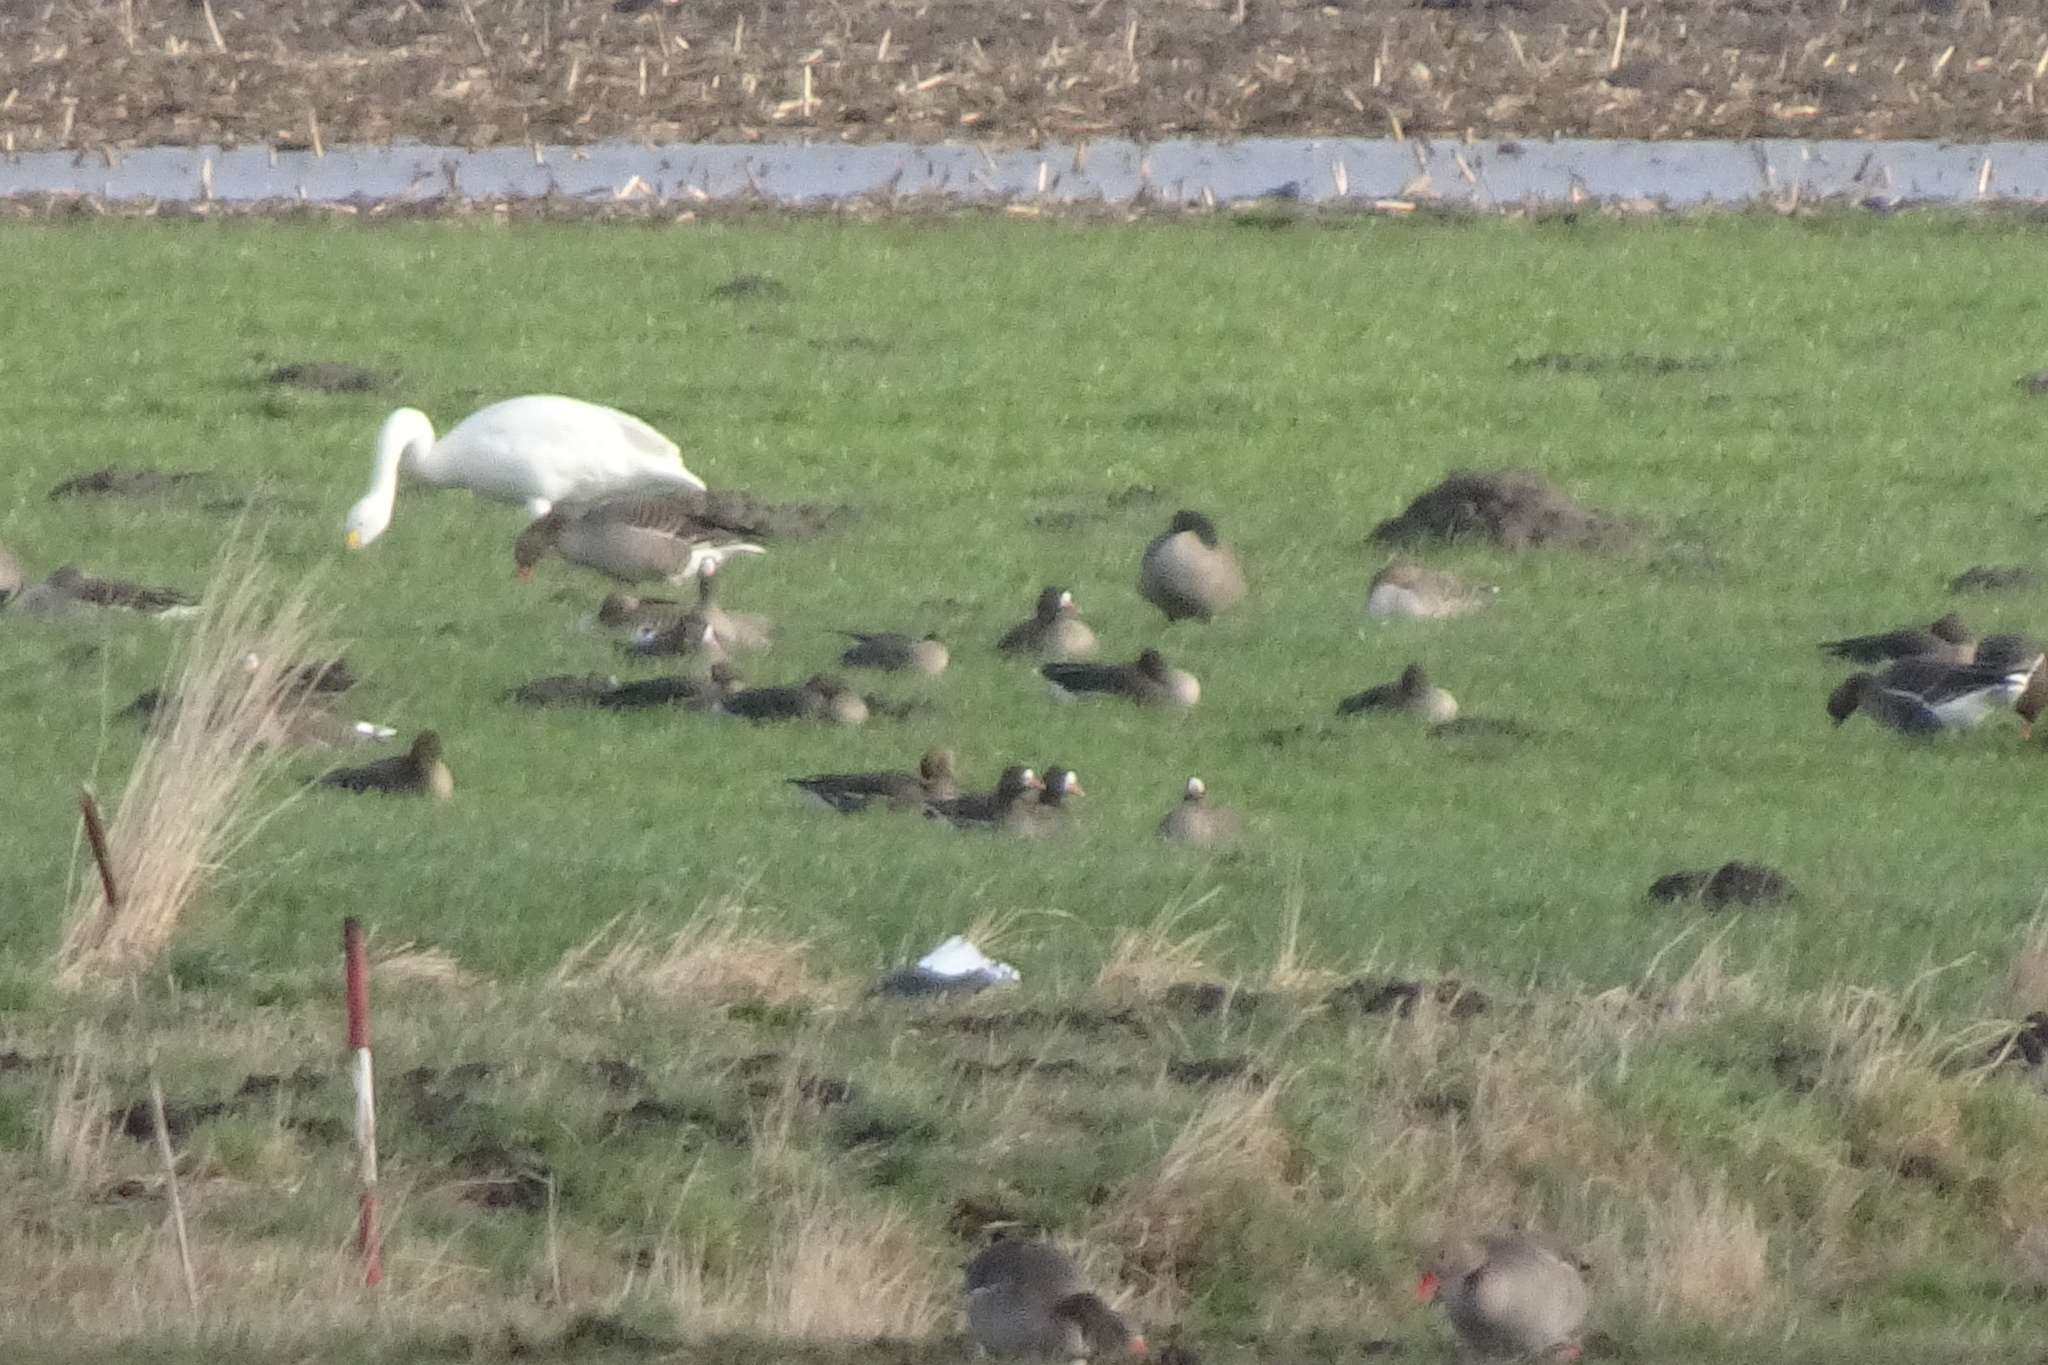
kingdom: Animalia
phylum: Chordata
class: Aves
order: Anseriformes
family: Anatidae
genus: Anser
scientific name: Anser albifrons
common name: Greater white-fronted goose
